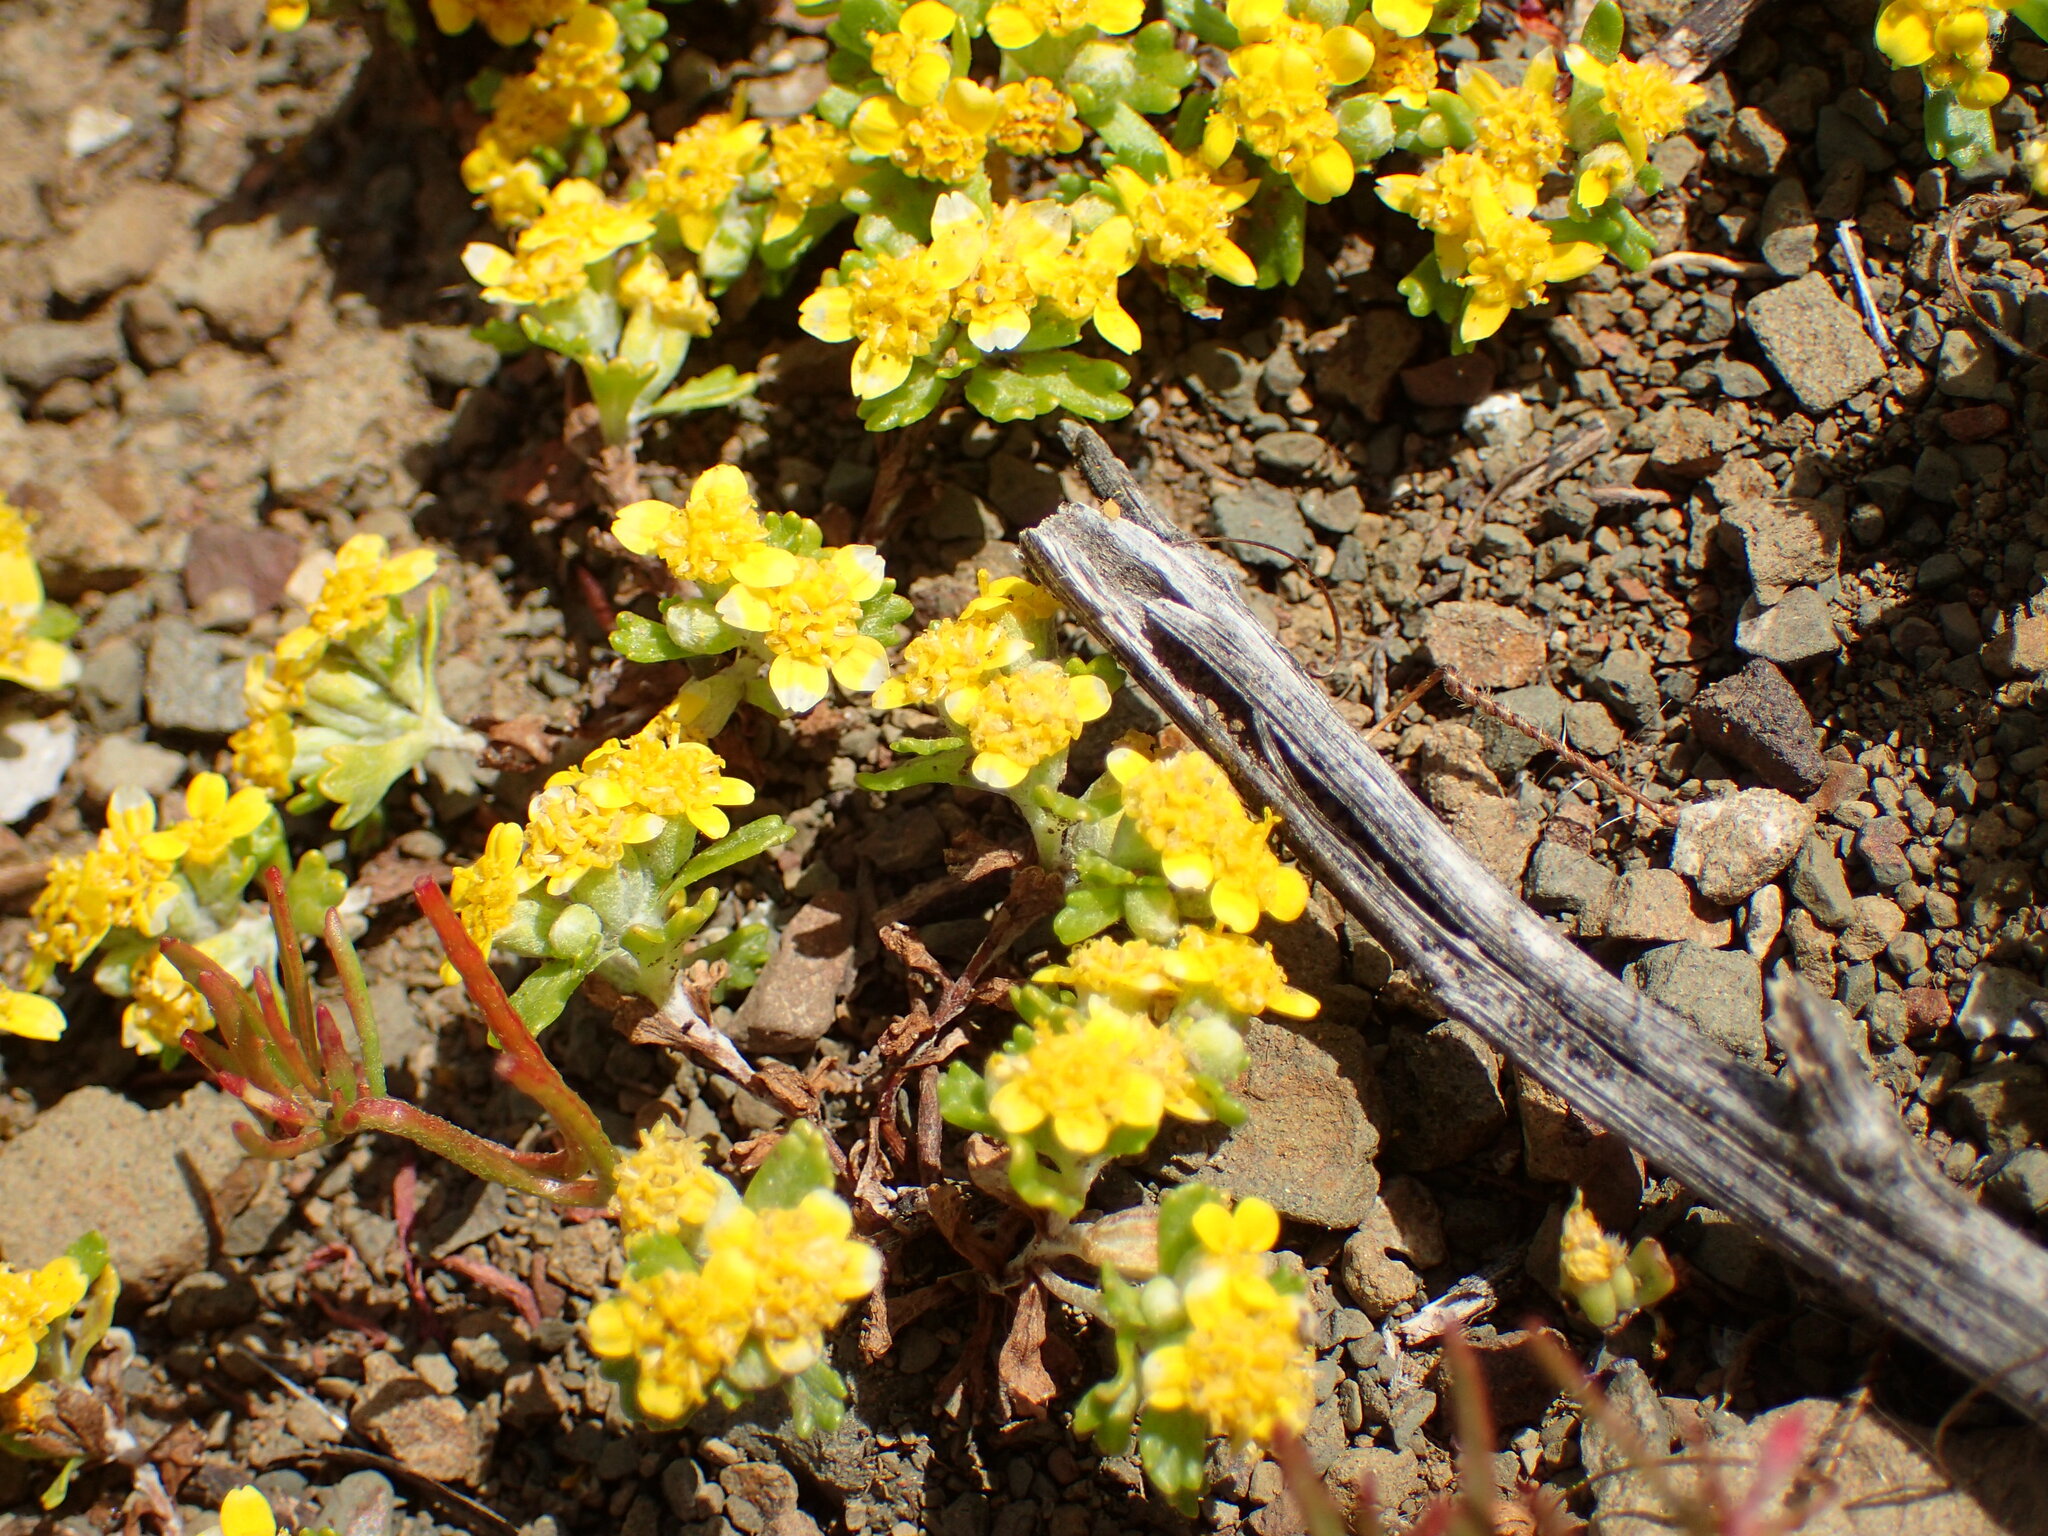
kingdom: Plantae
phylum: Tracheophyta
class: Magnoliopsida
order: Asterales
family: Asteraceae
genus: Eriophyllum
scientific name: Eriophyllum multicaule
